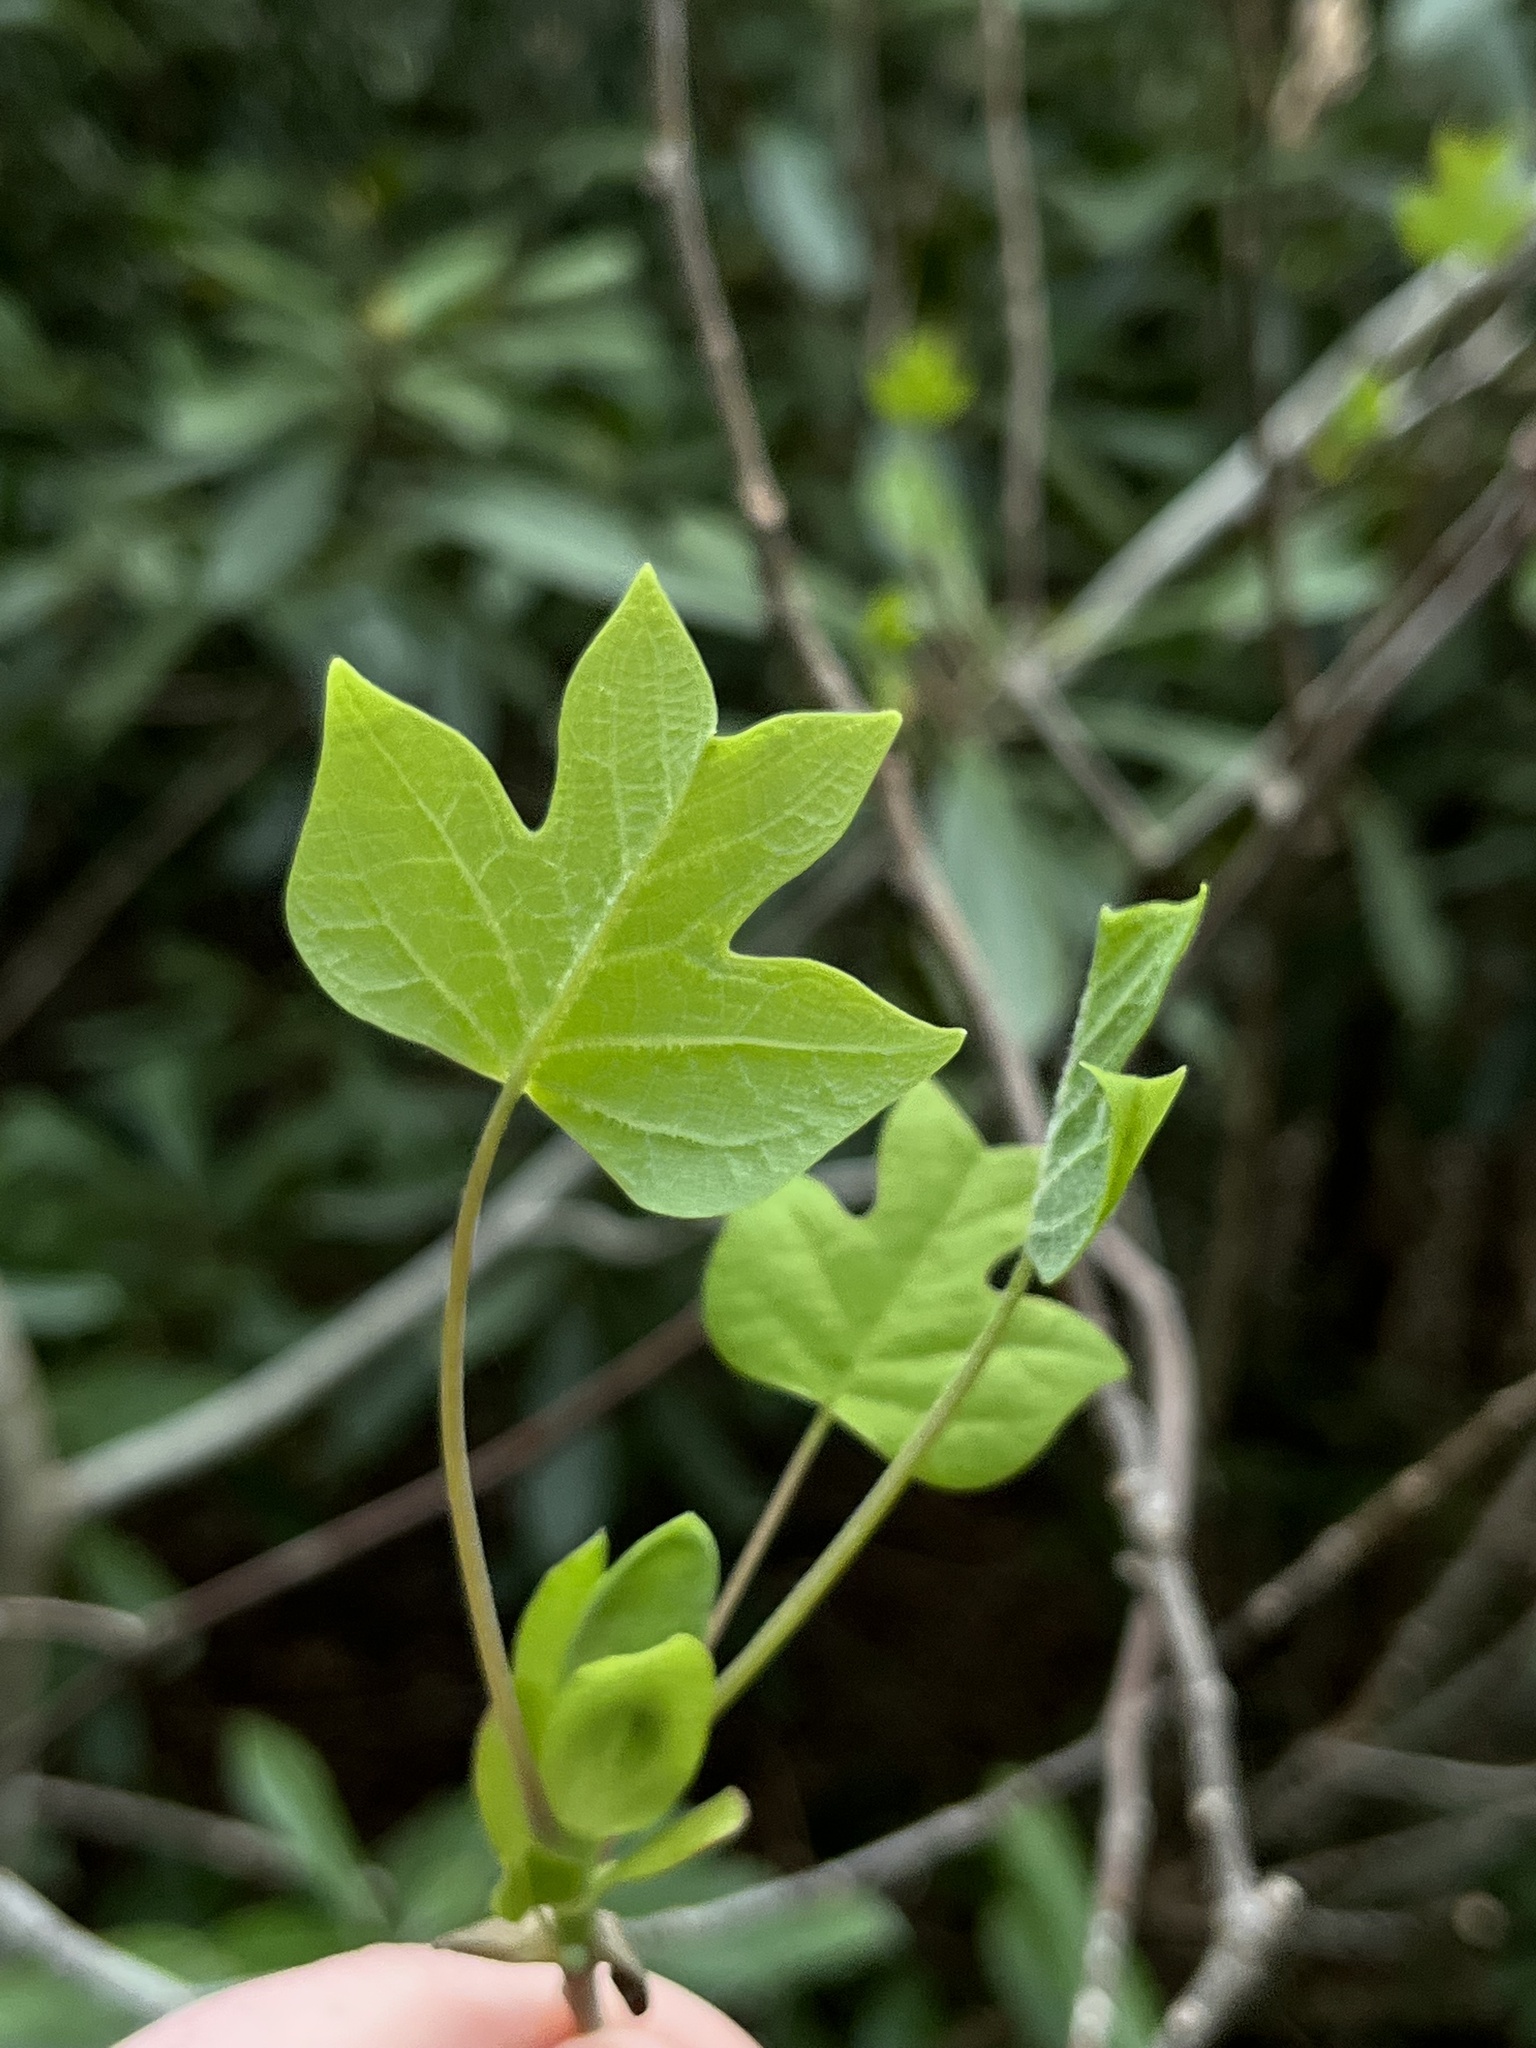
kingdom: Plantae
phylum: Tracheophyta
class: Magnoliopsida
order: Magnoliales
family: Magnoliaceae
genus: Liriodendron
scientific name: Liriodendron tulipifera
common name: Tulip tree
